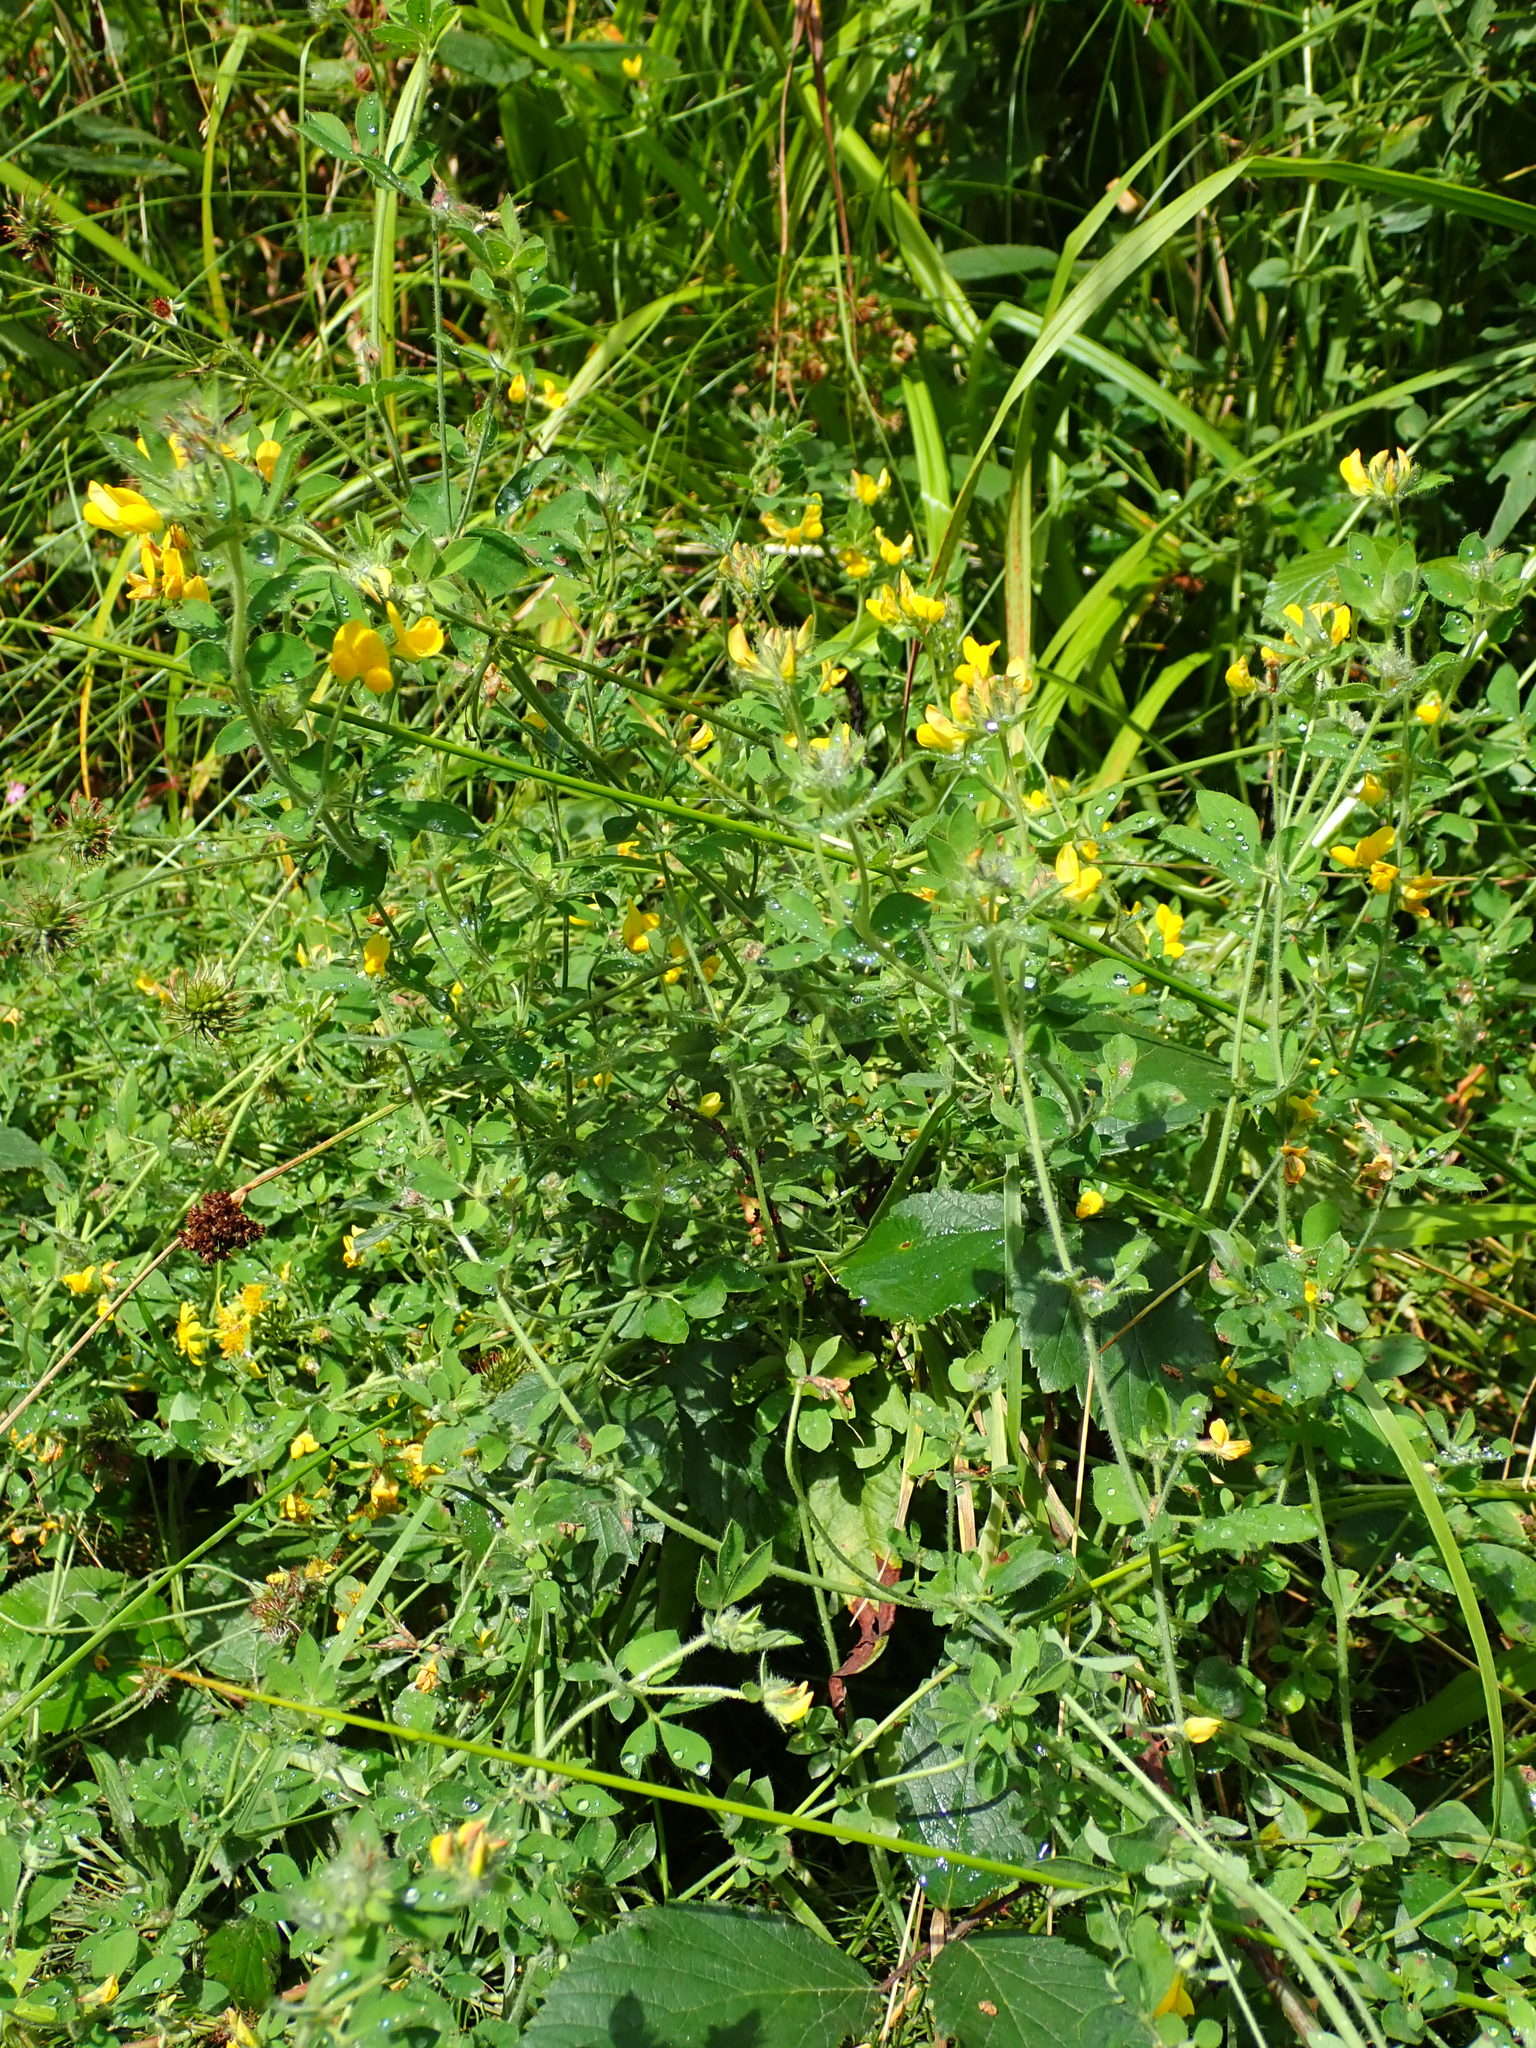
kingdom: Plantae
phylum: Tracheophyta
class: Magnoliopsida
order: Fabales
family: Fabaceae
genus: Lotus
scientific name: Lotus pedunculatus
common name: Greater birdsfoot-trefoil
